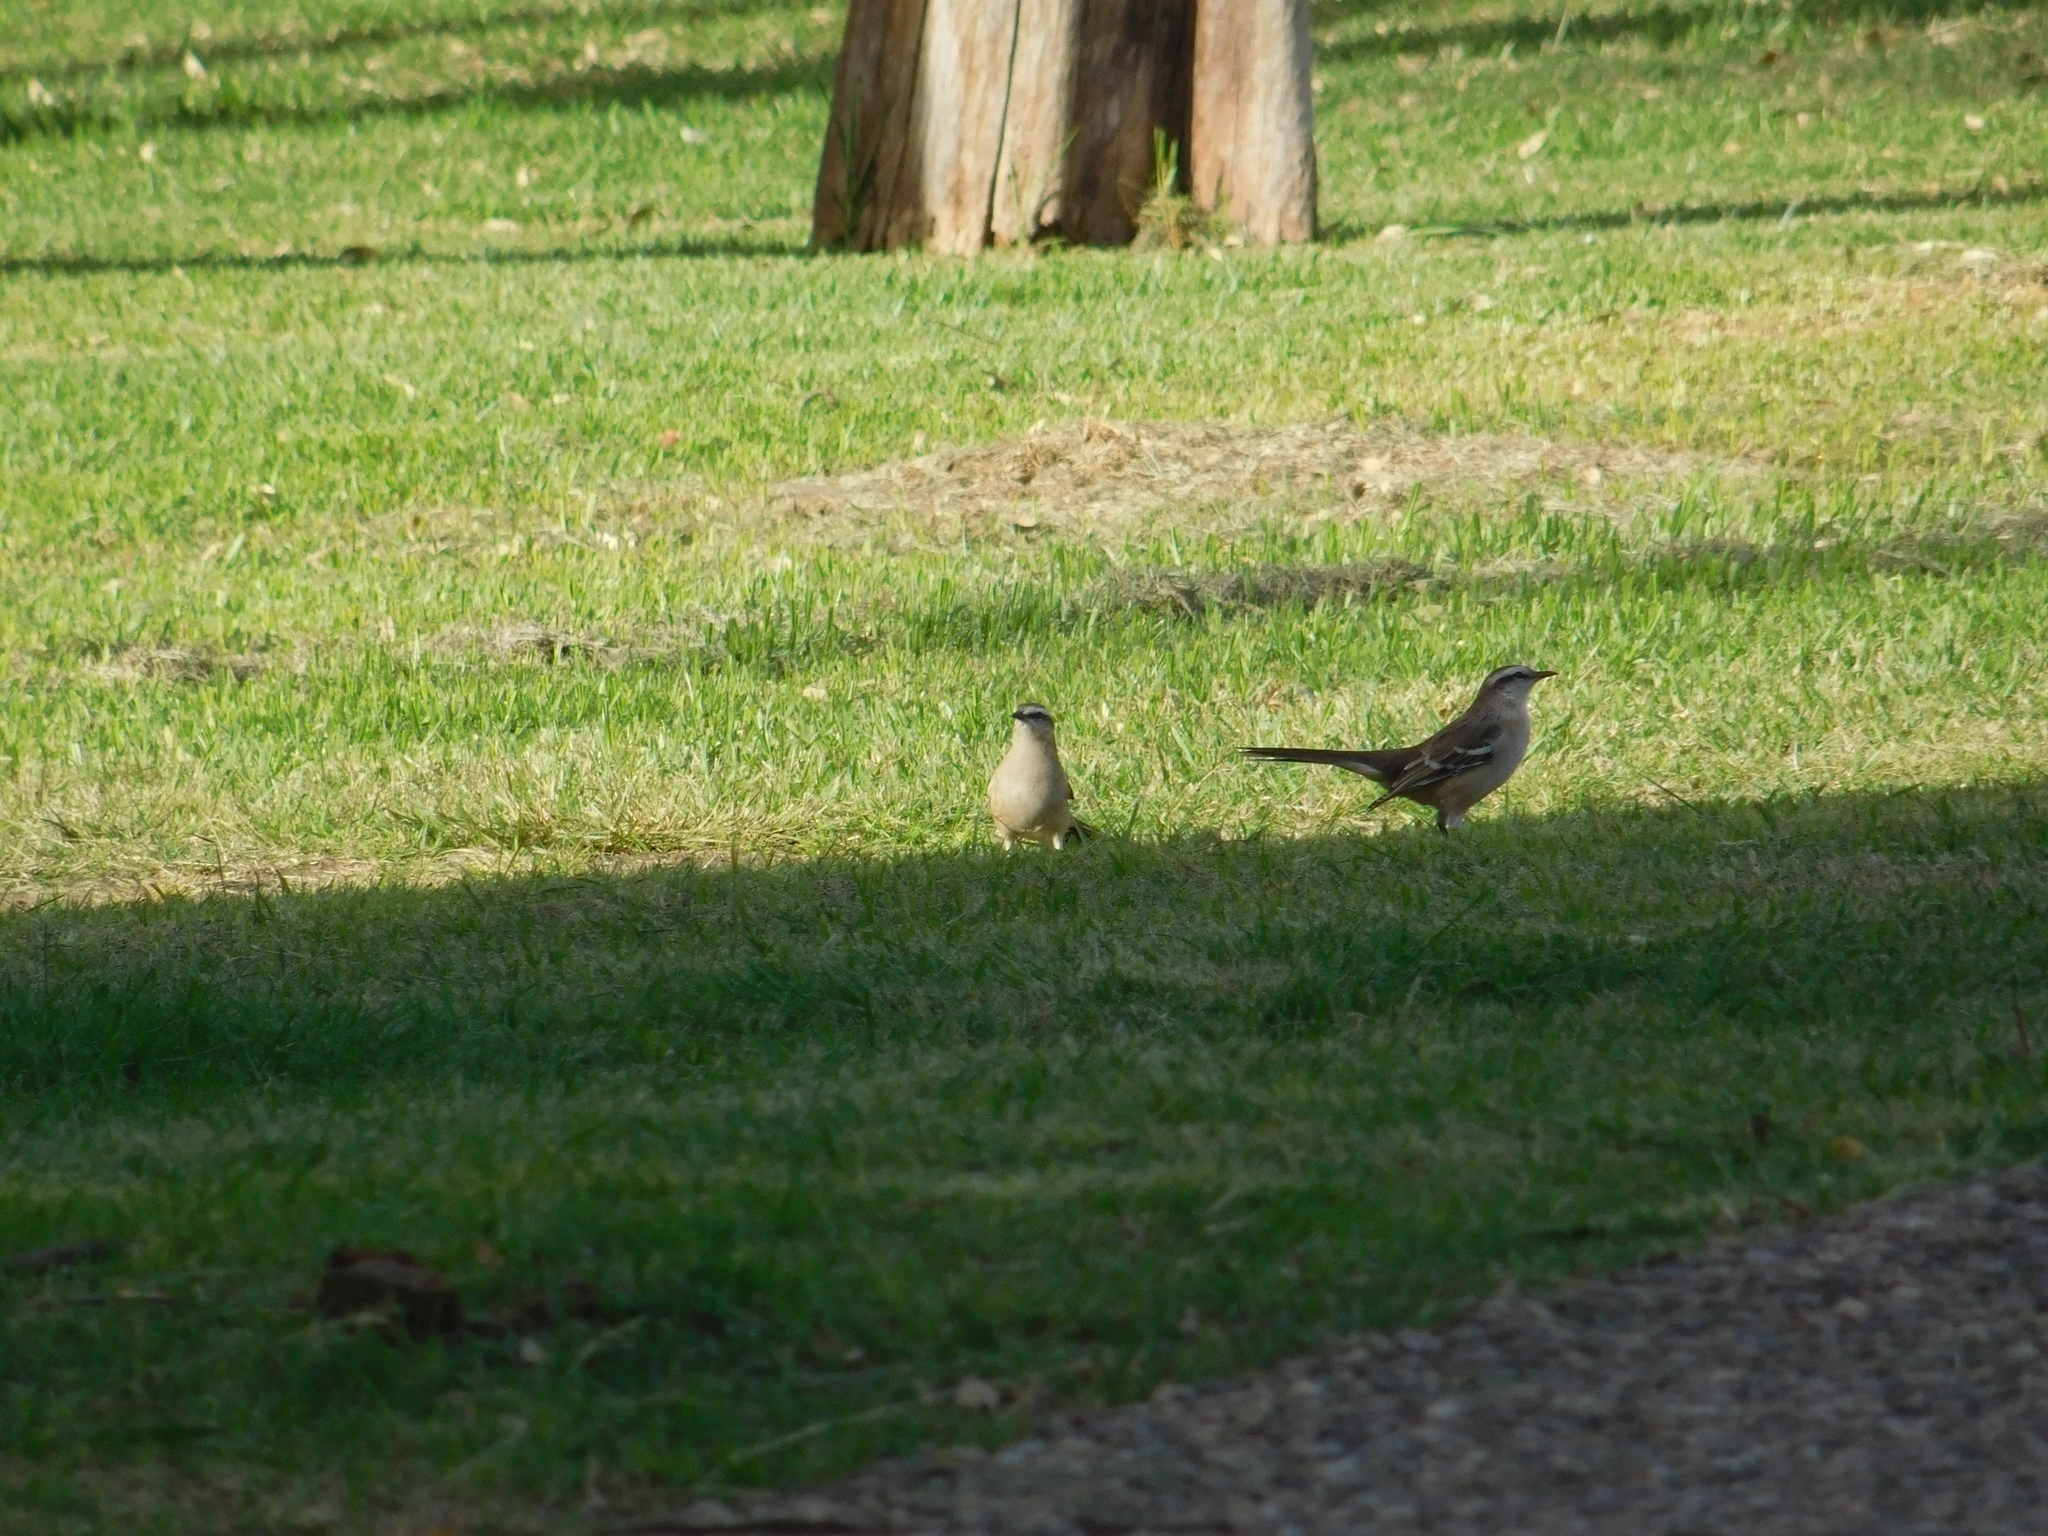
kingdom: Animalia
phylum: Chordata
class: Aves
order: Passeriformes
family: Mimidae
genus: Mimus
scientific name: Mimus saturninus
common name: Chalk-browed mockingbird
